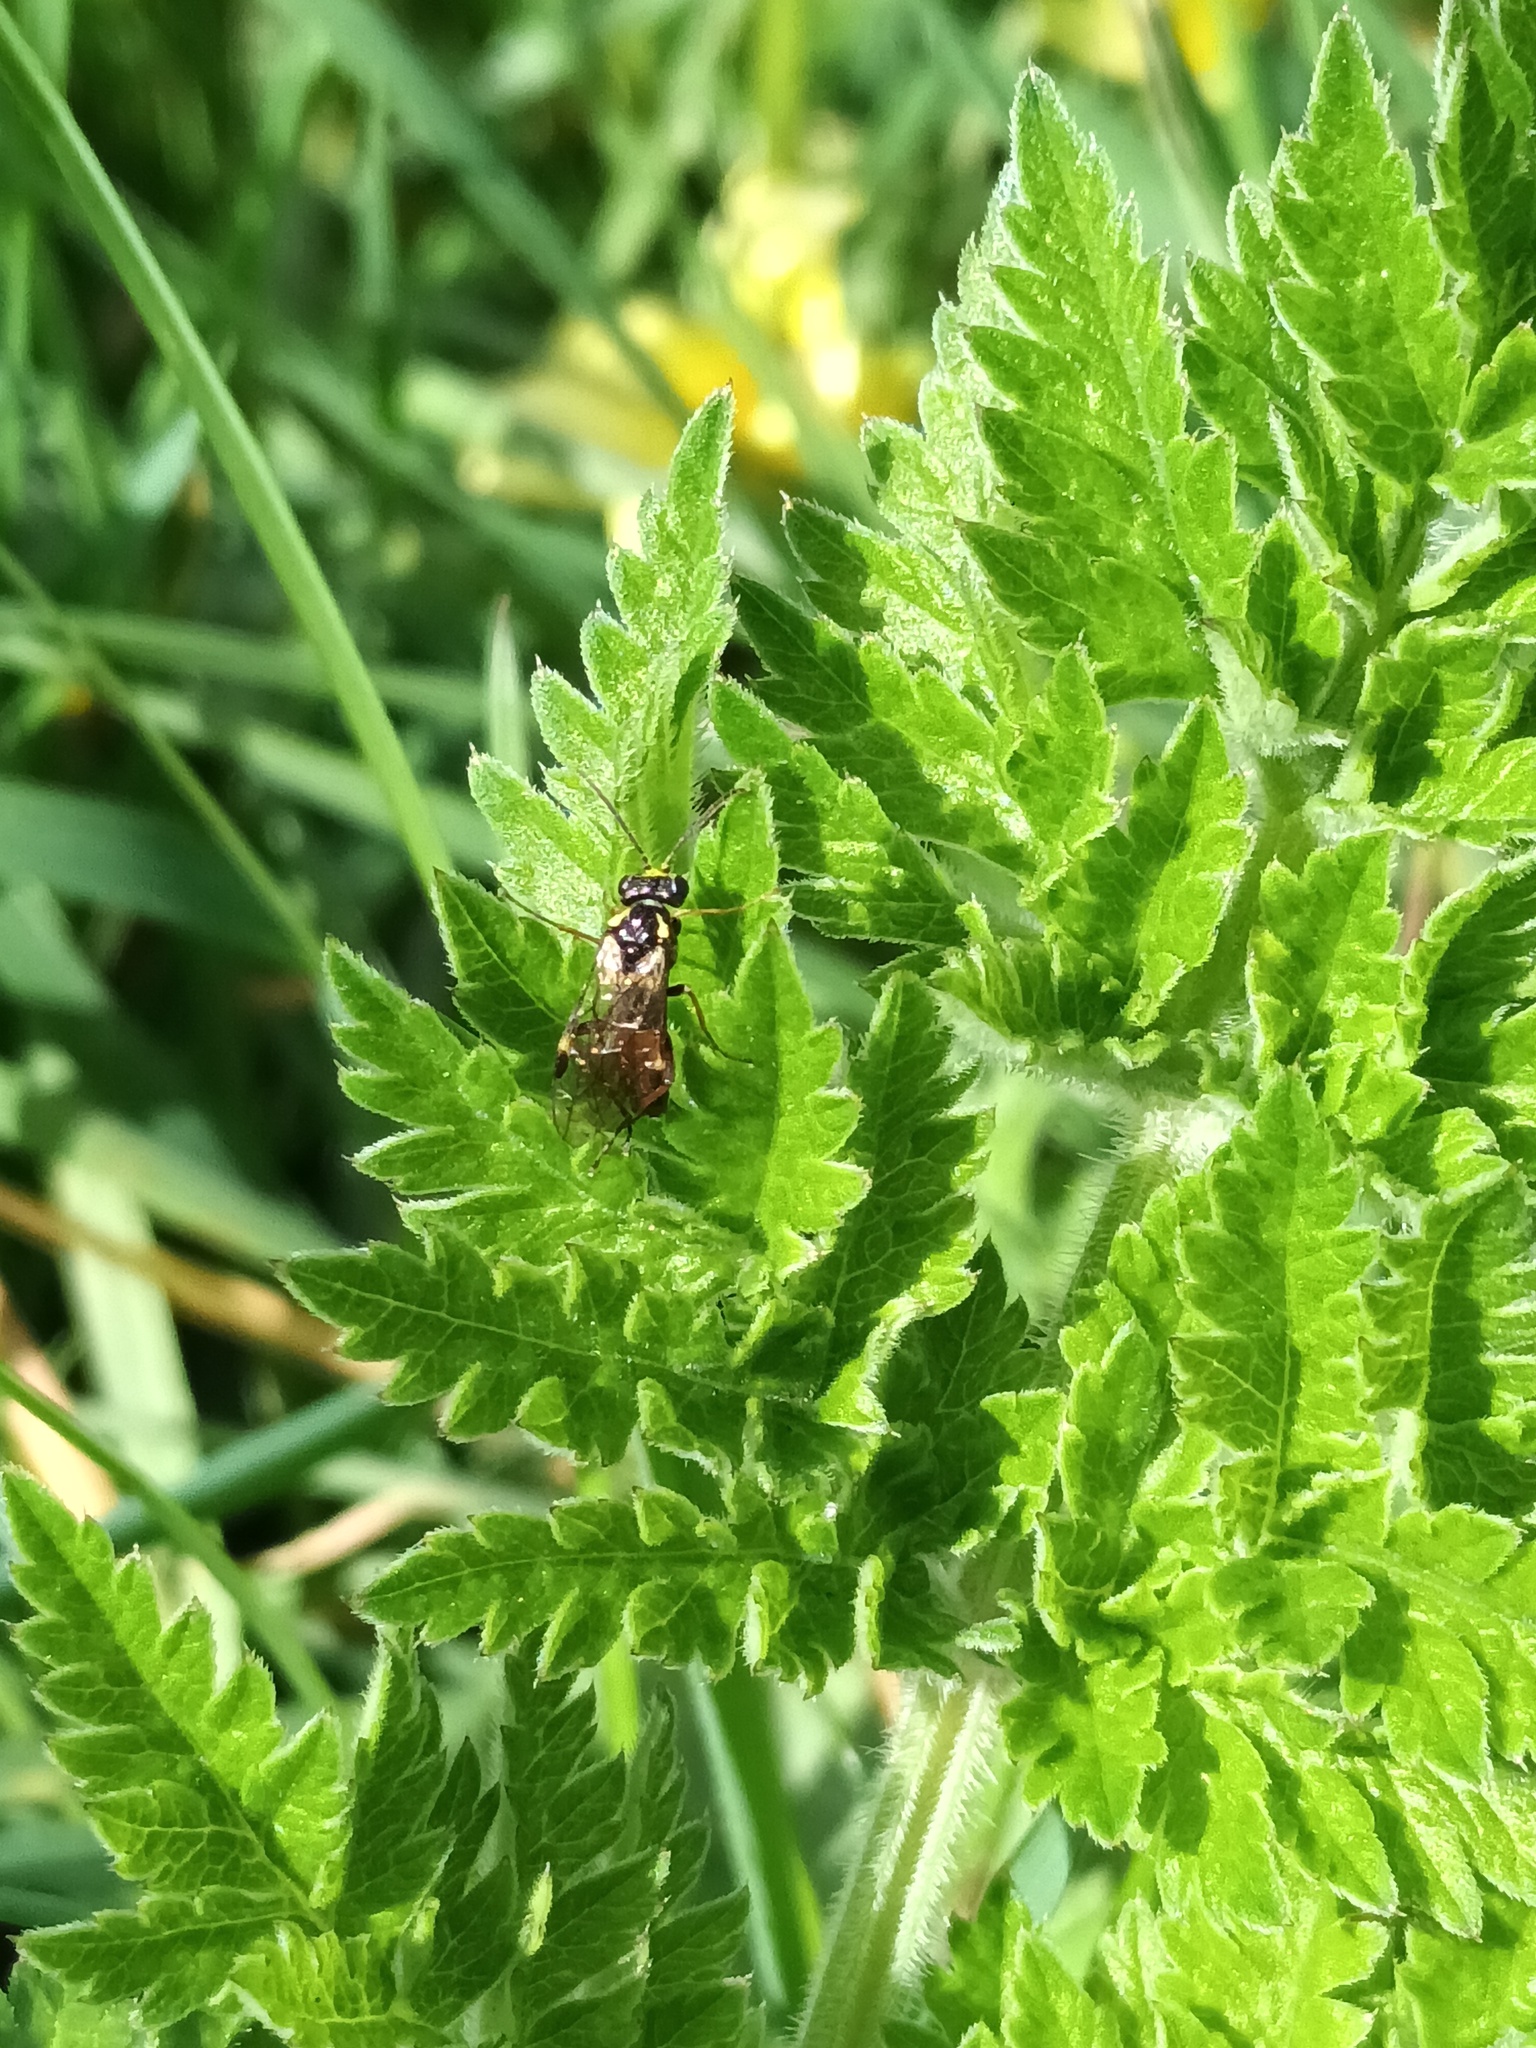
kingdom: Animalia
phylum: Arthropoda
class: Insecta
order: Hymenoptera
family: Tenthredinidae
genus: Aglaostigma
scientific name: Aglaostigma aucupariae
